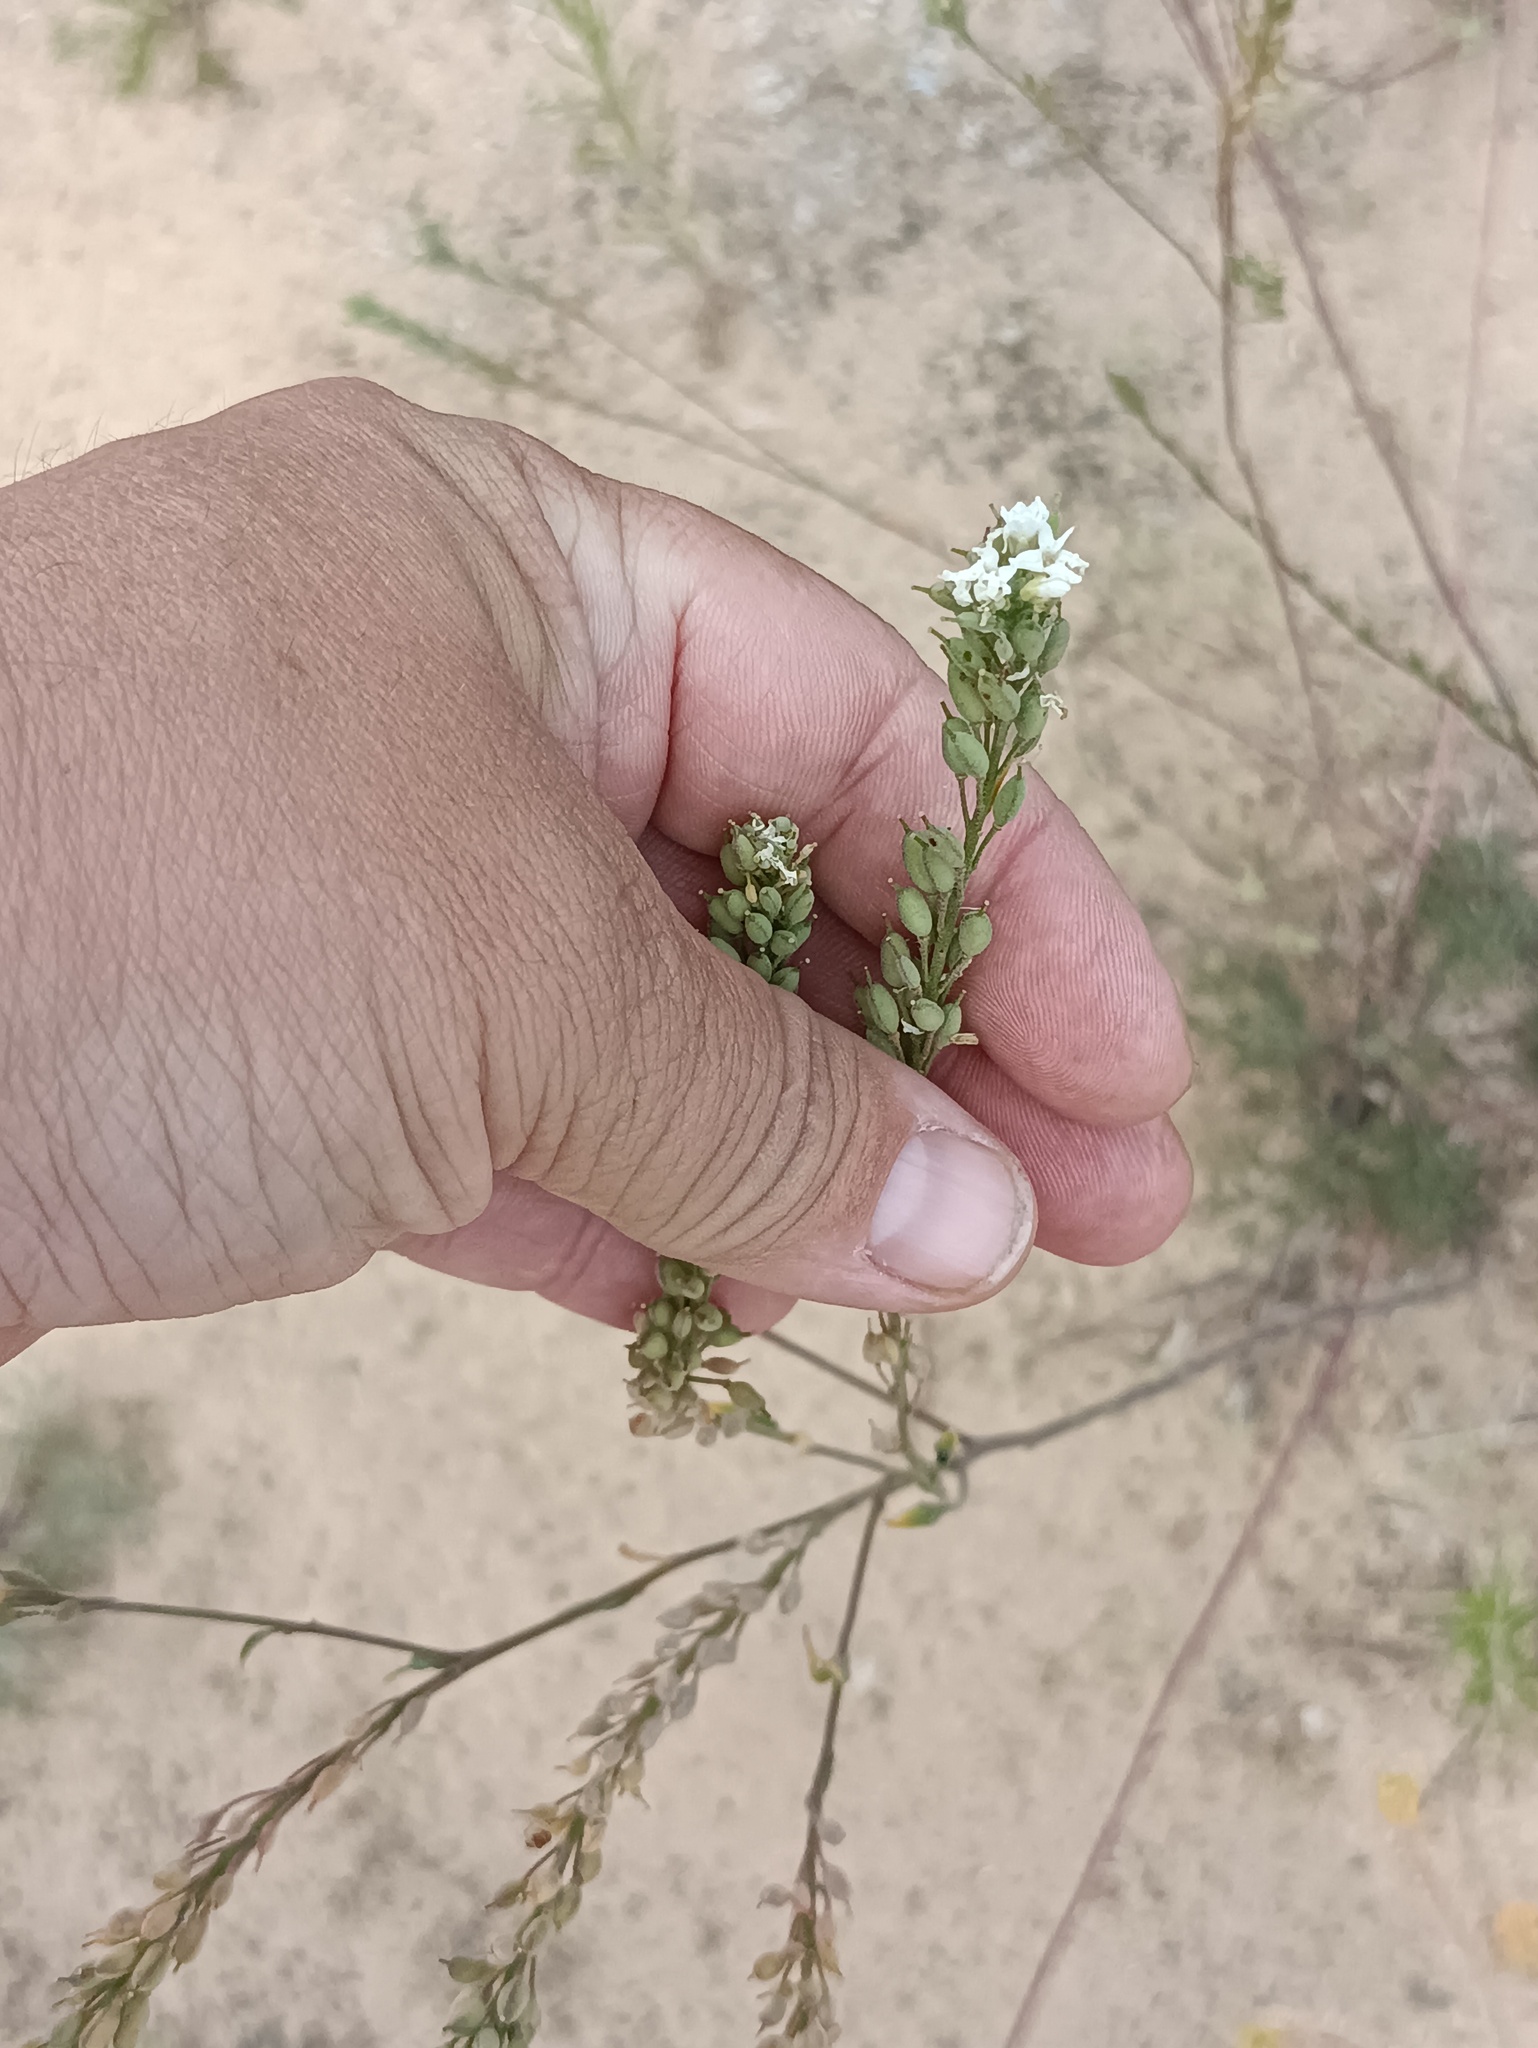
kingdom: Plantae
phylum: Tracheophyta
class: Magnoliopsida
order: Brassicales
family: Brassicaceae
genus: Berteroa
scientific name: Berteroa incana
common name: Hoary alison
